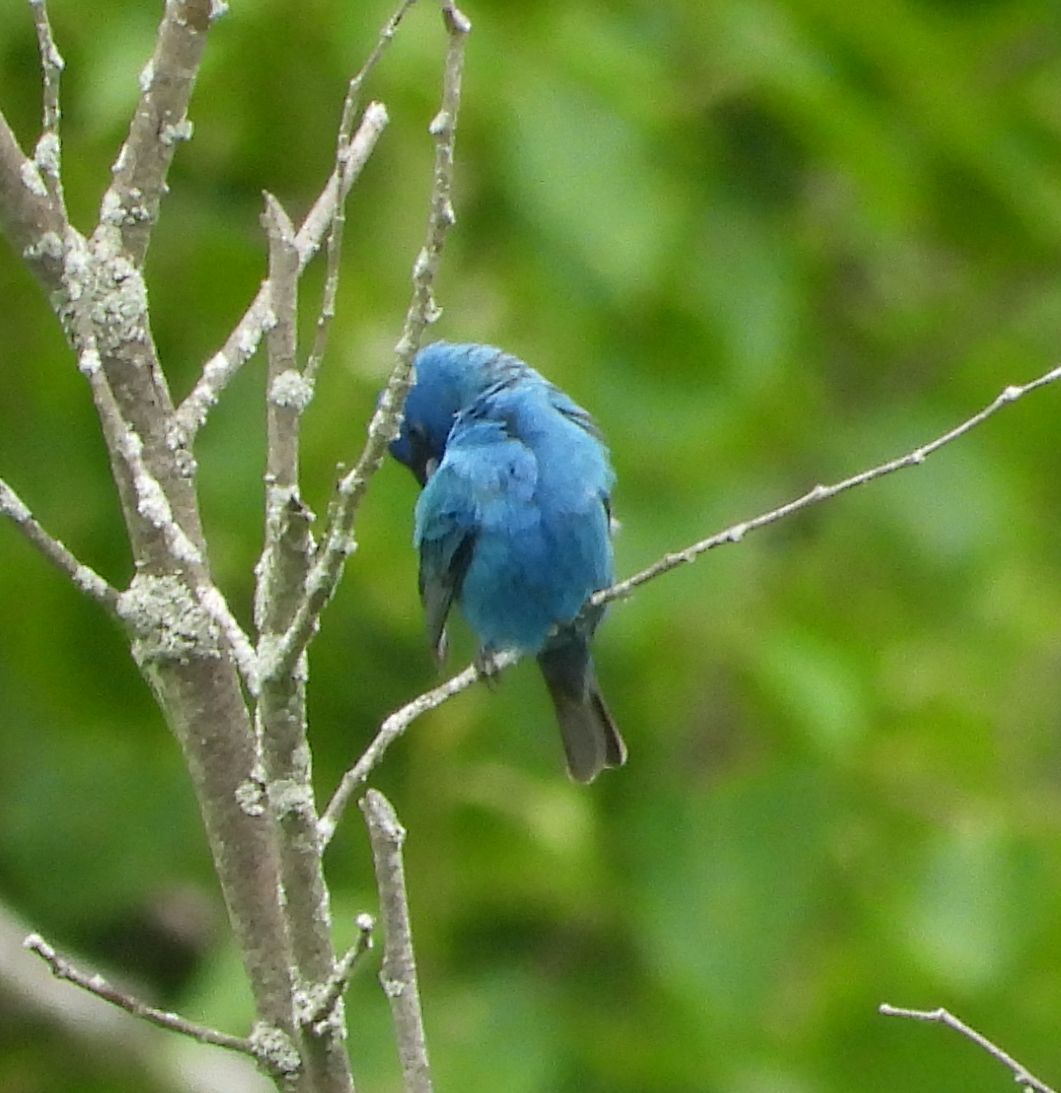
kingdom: Animalia
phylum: Chordata
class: Aves
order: Passeriformes
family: Cardinalidae
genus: Passerina
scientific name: Passerina cyanea
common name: Indigo bunting
